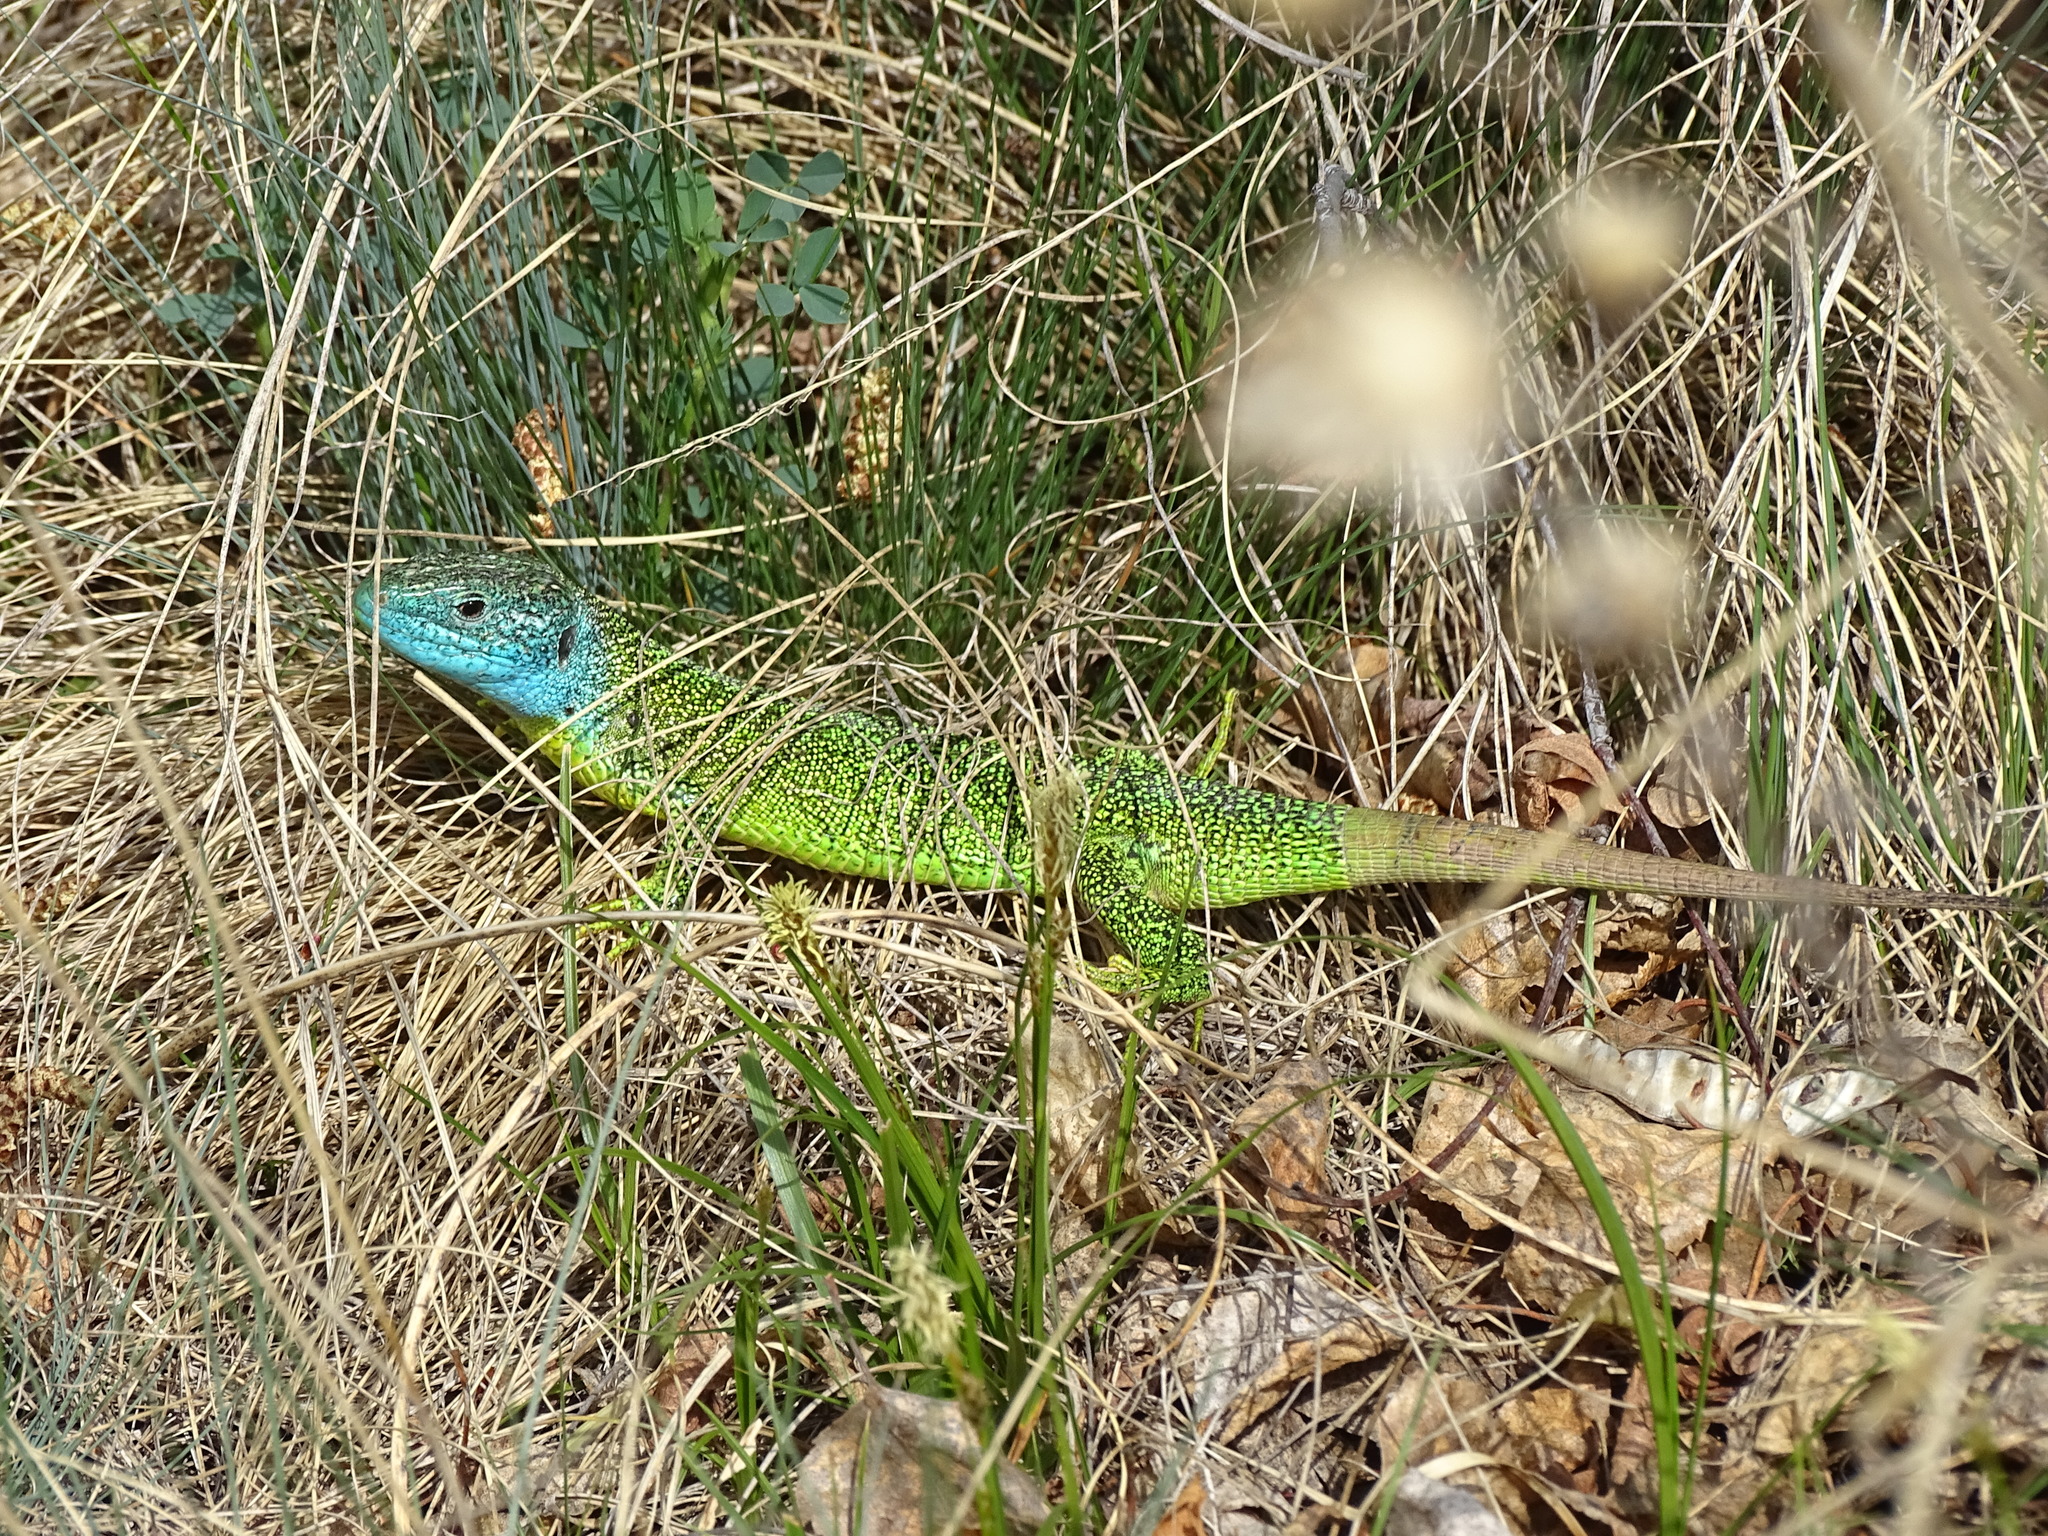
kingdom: Animalia
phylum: Chordata
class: Squamata
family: Lacertidae
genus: Lacerta
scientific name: Lacerta bilineata
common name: Western green lizard
